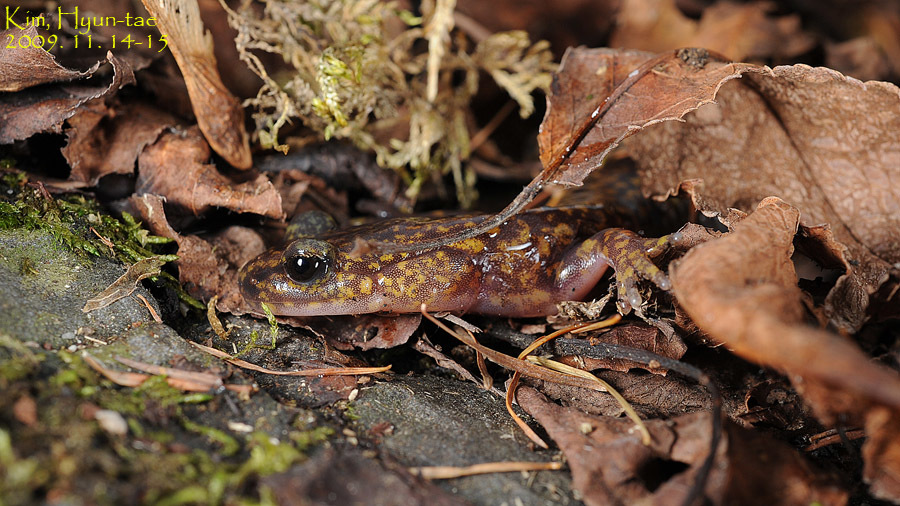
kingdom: Animalia
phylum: Chordata
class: Amphibia
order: Caudata
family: Hynobiidae
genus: Onychodactylus
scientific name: Onychodactylus koreanus
